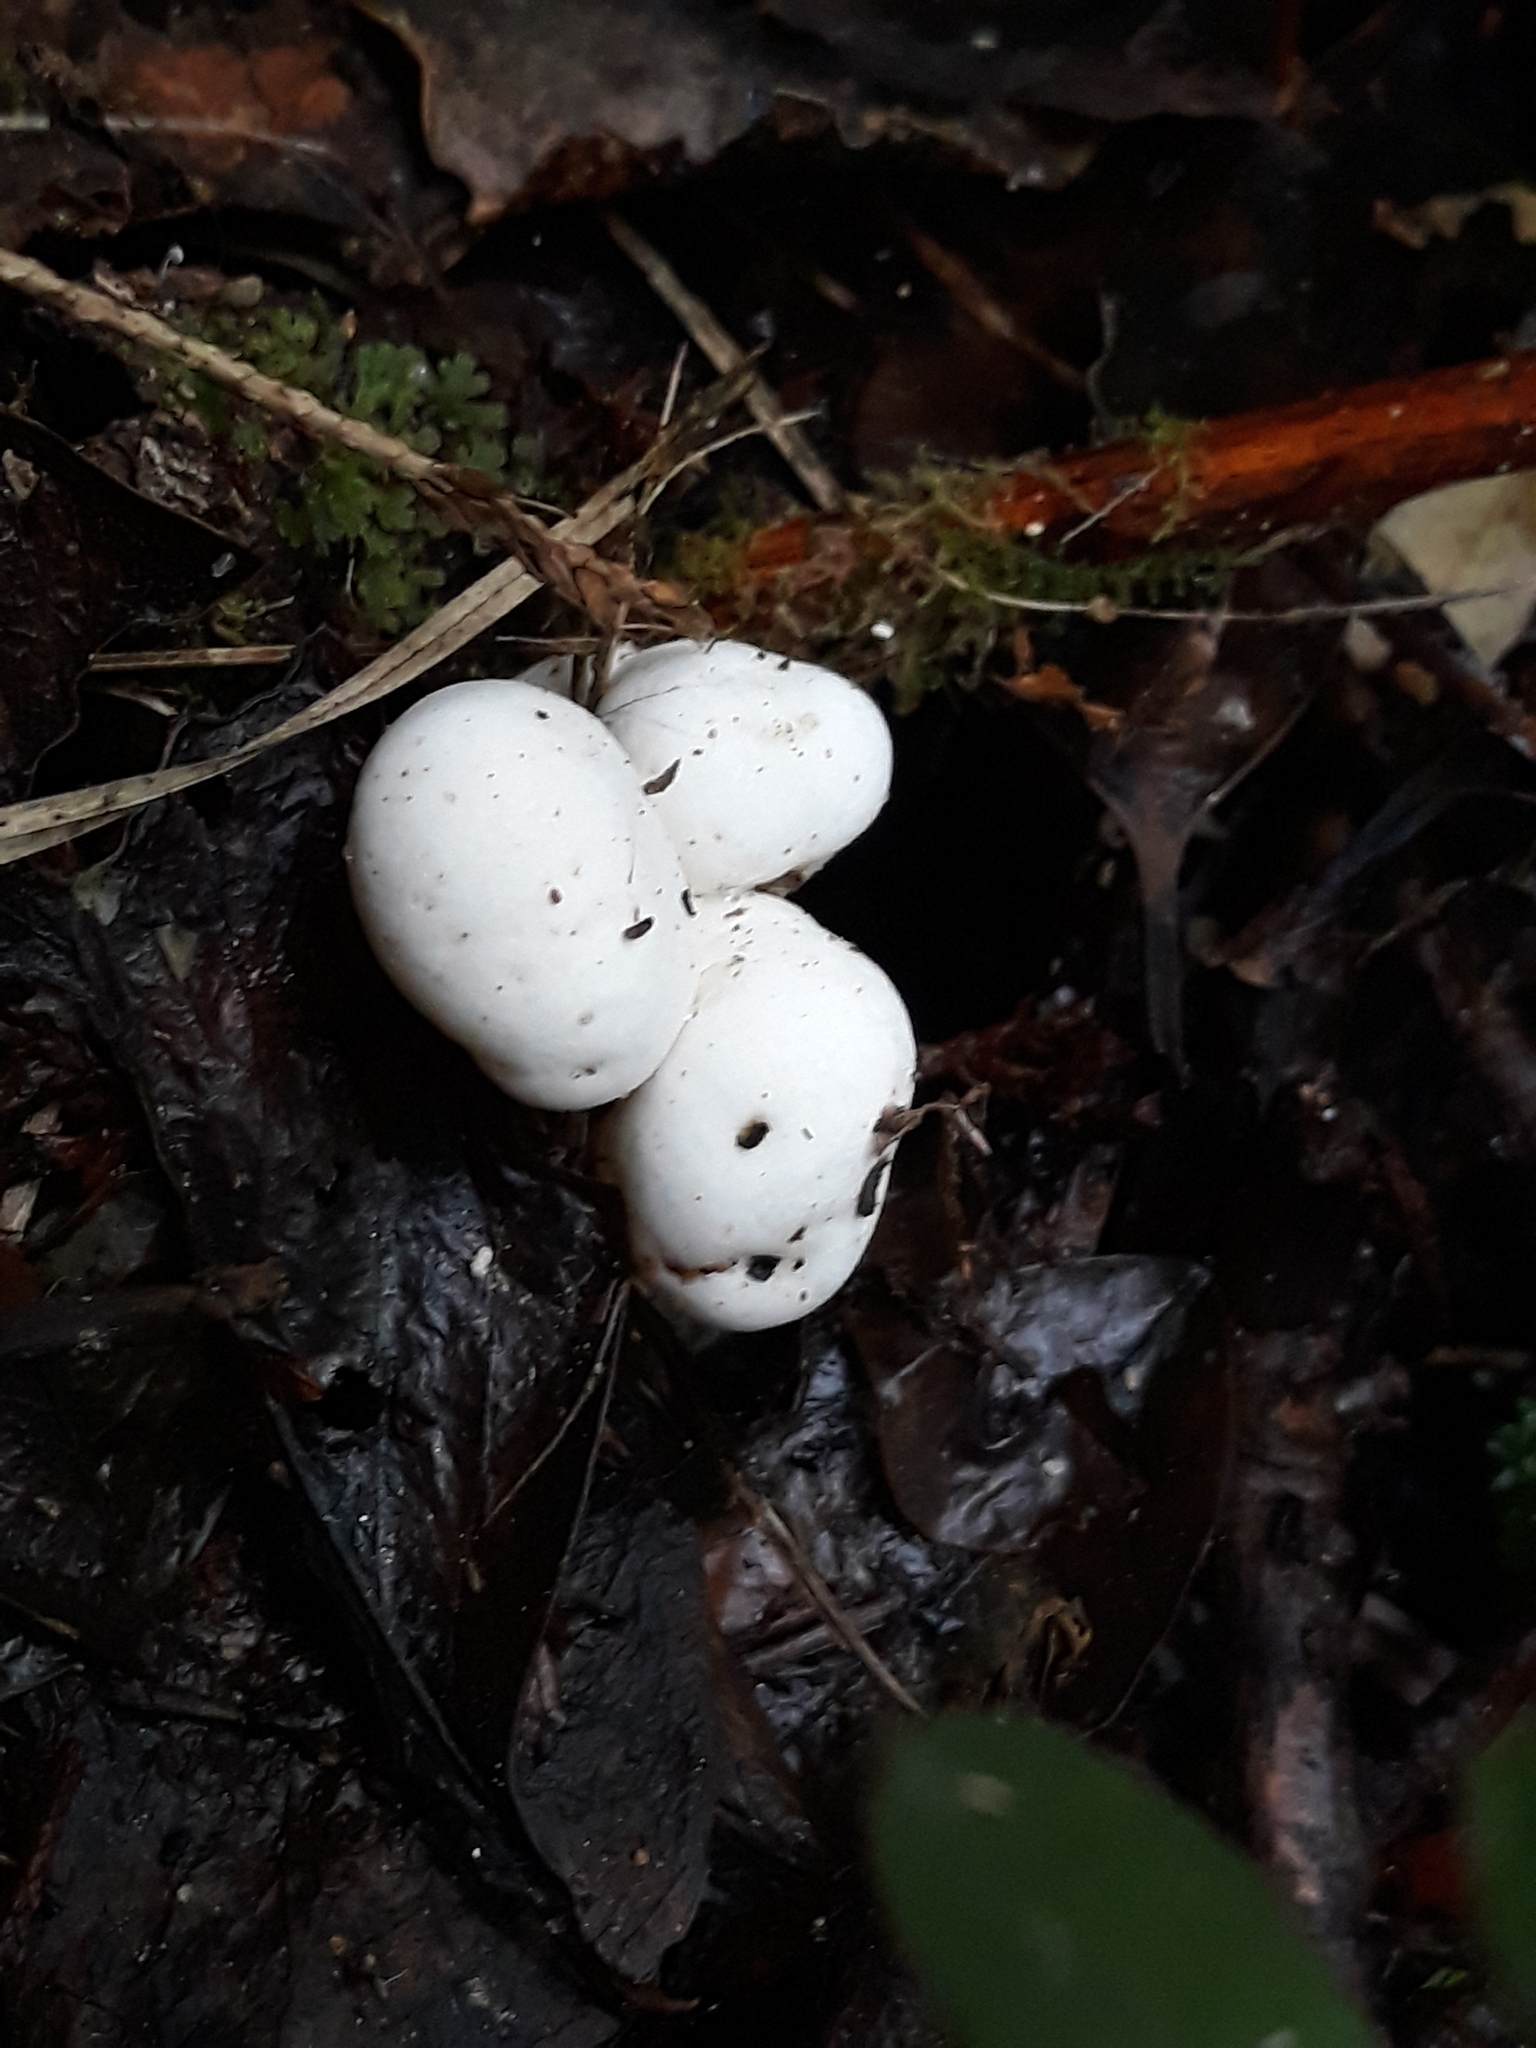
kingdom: Fungi
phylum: Basidiomycota
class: Agaricomycetes
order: Hysterangiales
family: Trappeaceae
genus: Phallobata
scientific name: Phallobata alba
